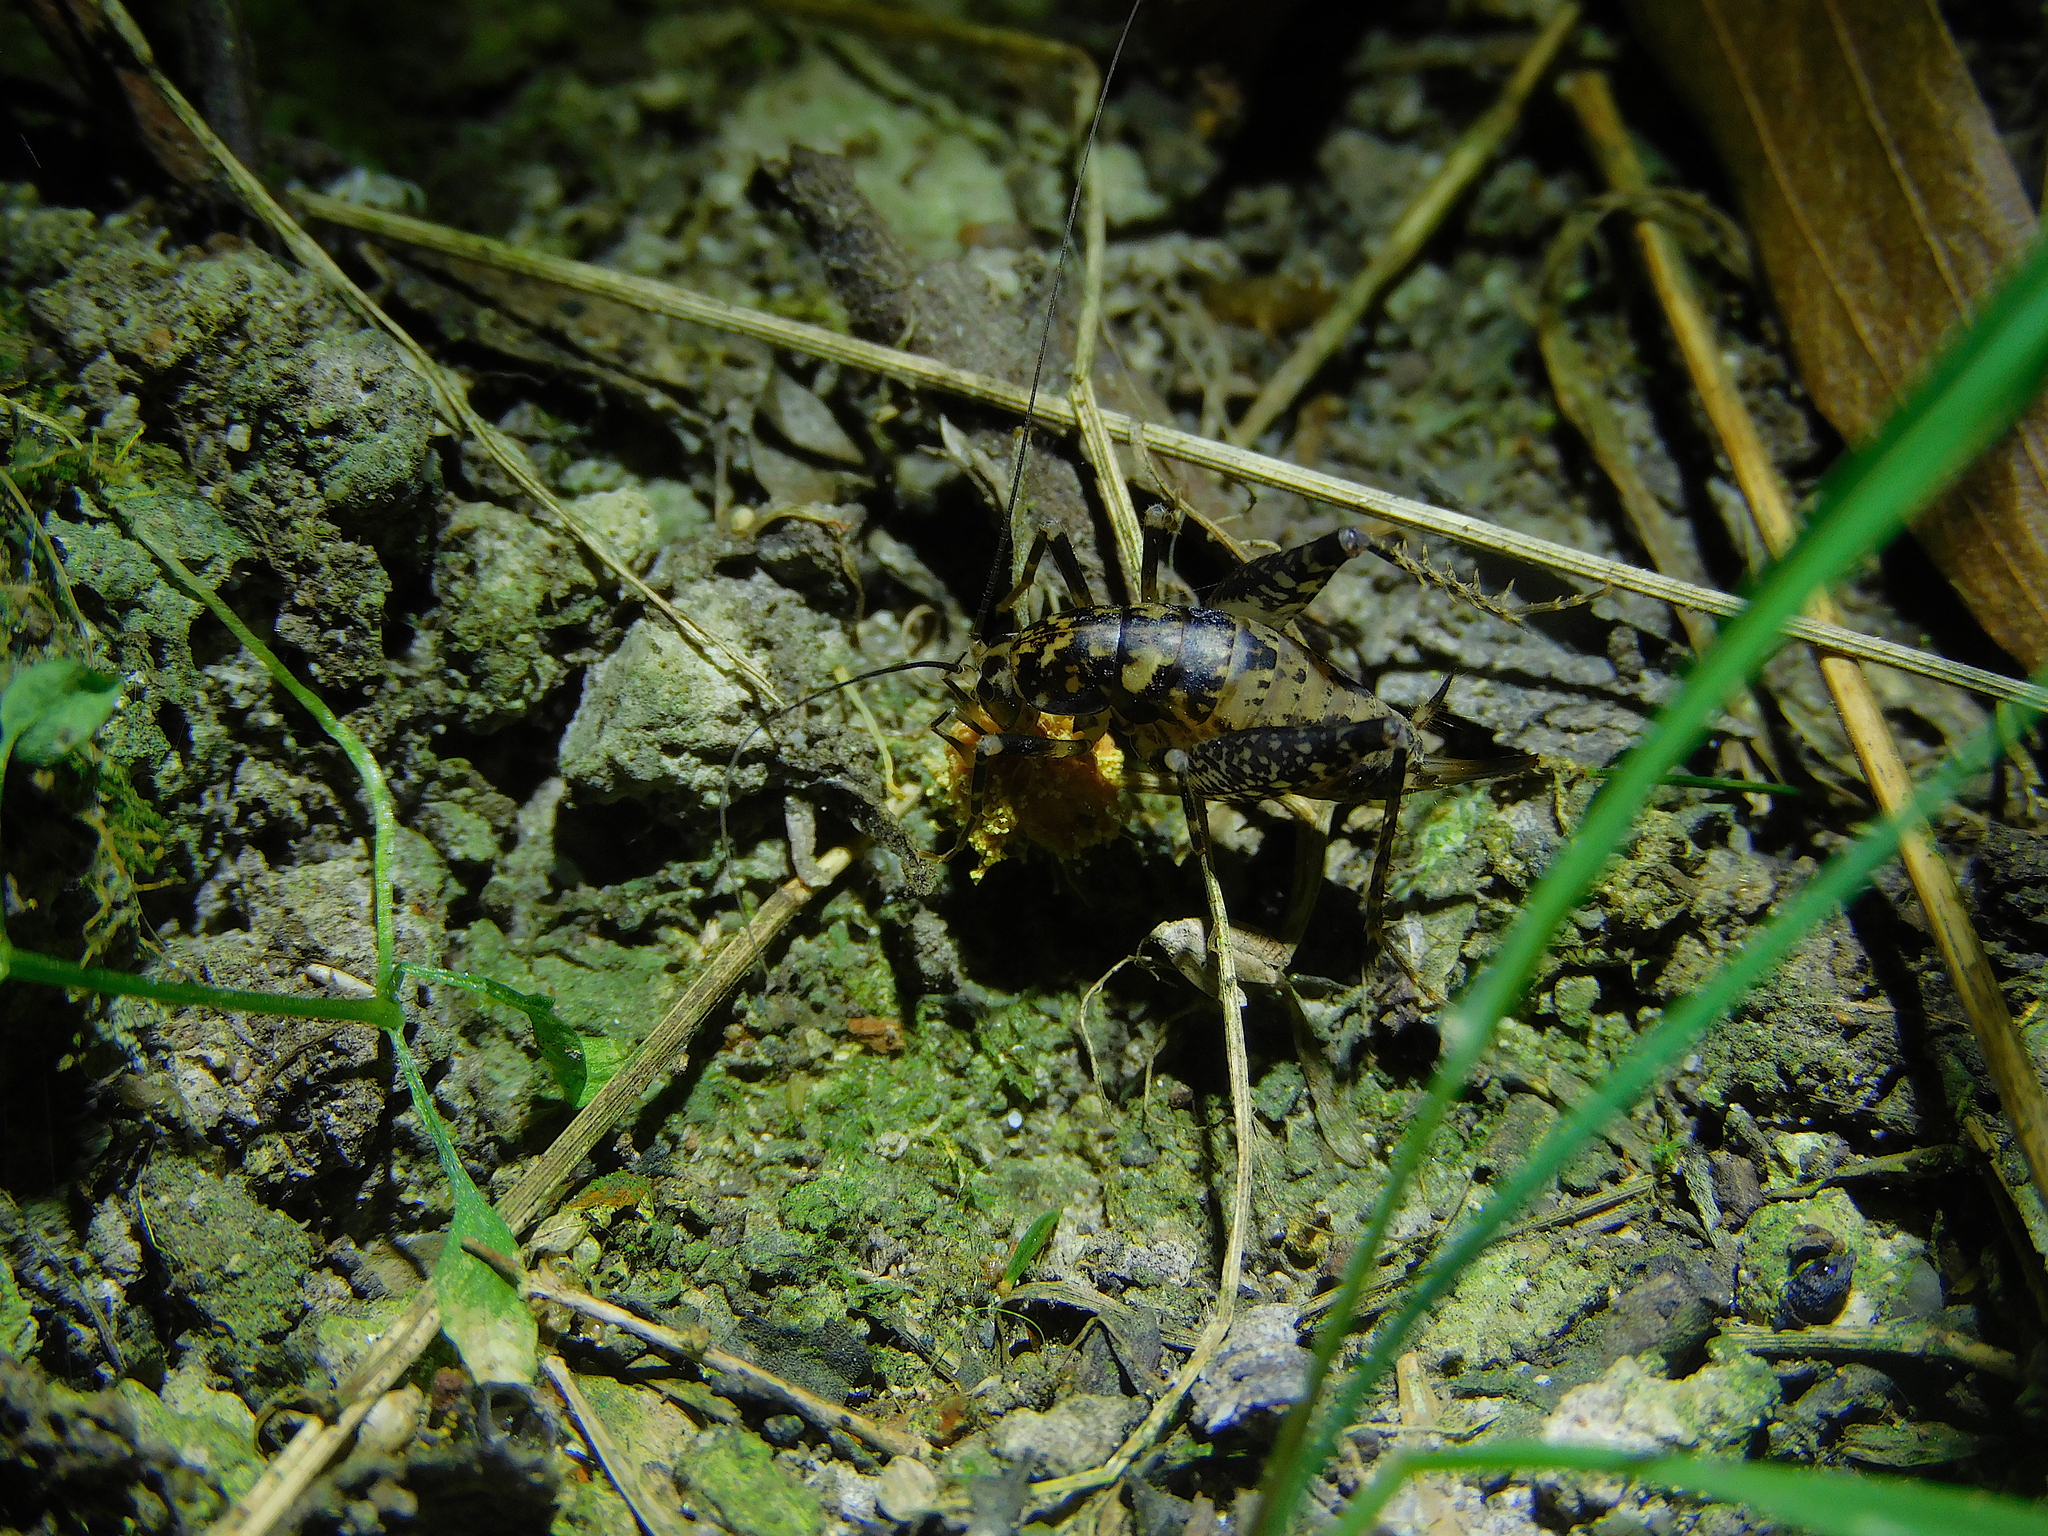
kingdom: Animalia
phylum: Arthropoda
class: Insecta
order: Orthoptera
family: Rhaphidophoridae
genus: Parvotettix
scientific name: Parvotettix domesticus
